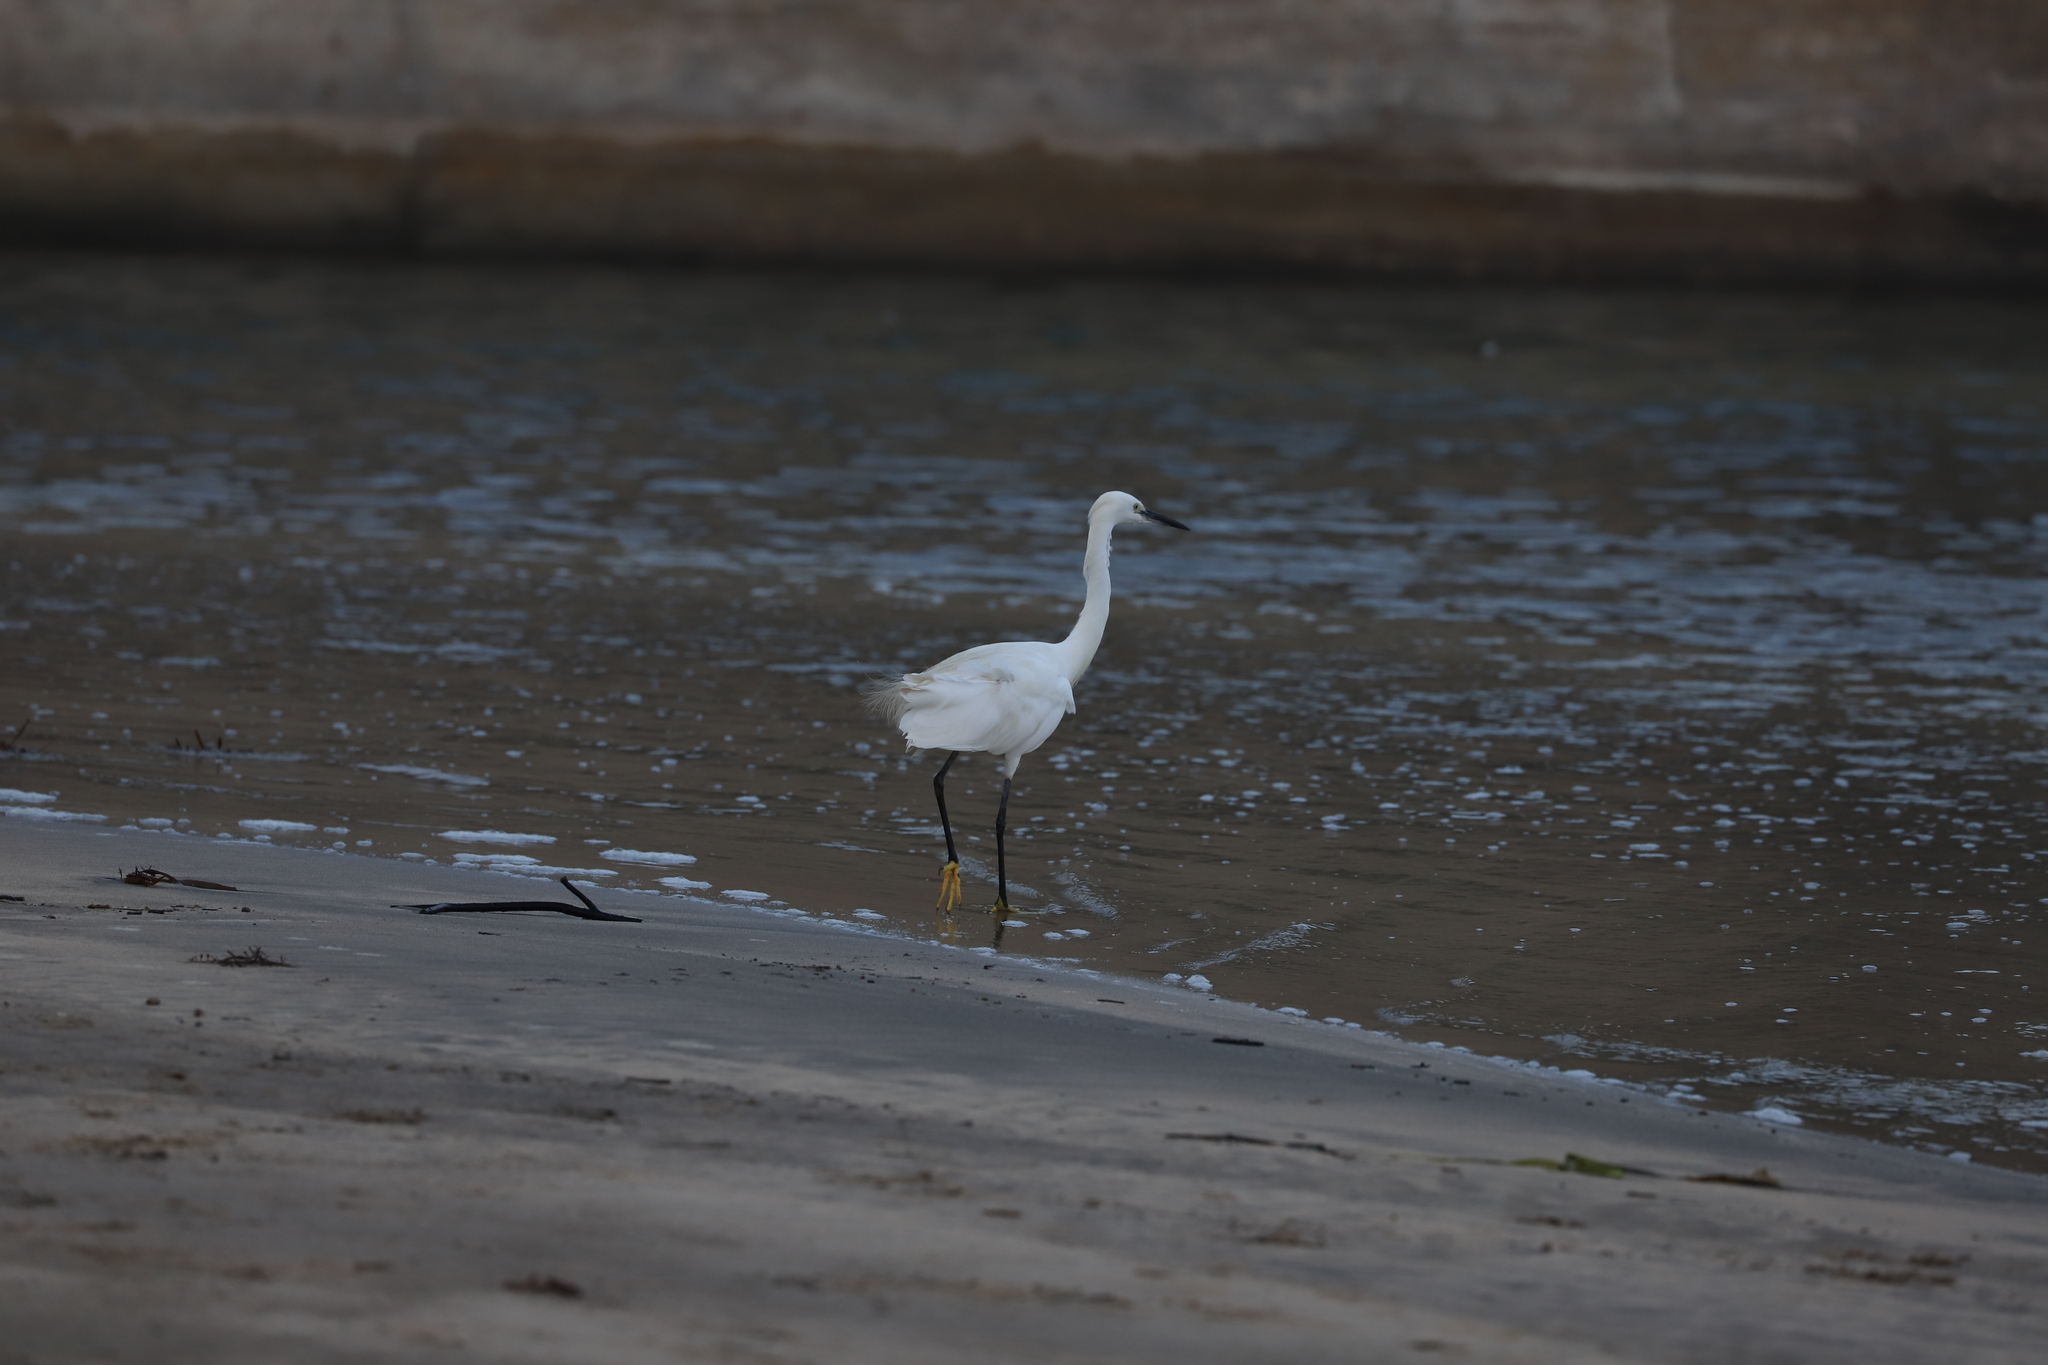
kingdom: Animalia
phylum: Chordata
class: Aves
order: Pelecaniformes
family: Ardeidae
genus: Egretta
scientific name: Egretta garzetta
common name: Little egret
